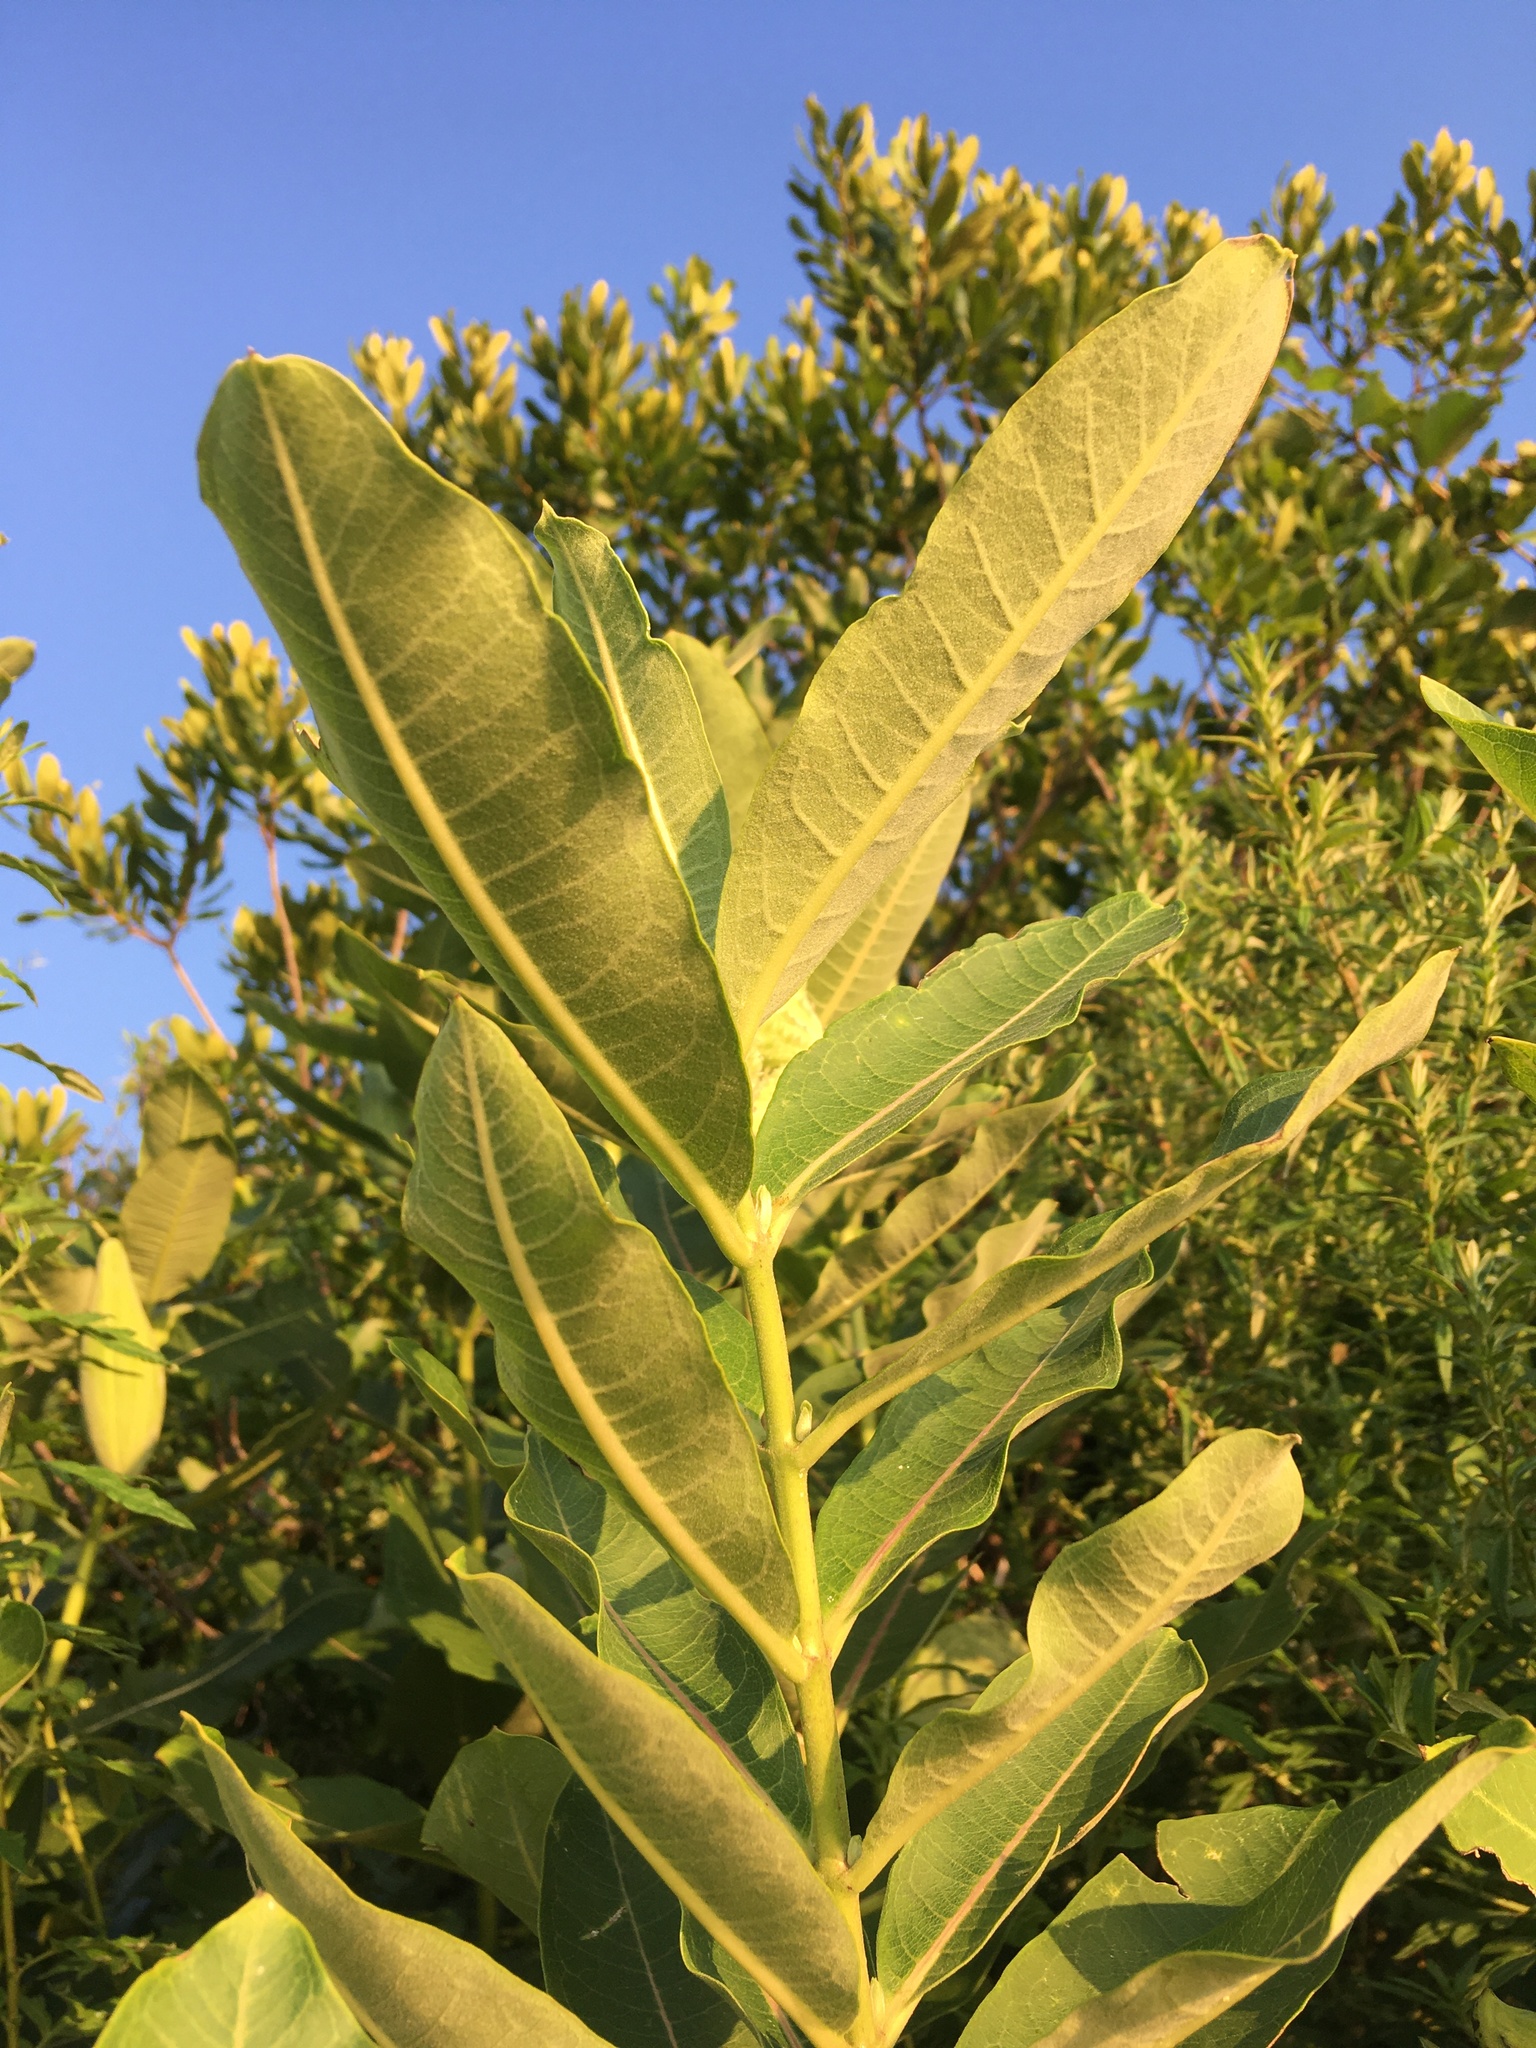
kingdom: Plantae
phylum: Tracheophyta
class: Magnoliopsida
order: Gentianales
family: Apocynaceae
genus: Asclepias
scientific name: Asclepias syriaca
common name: Common milkweed
